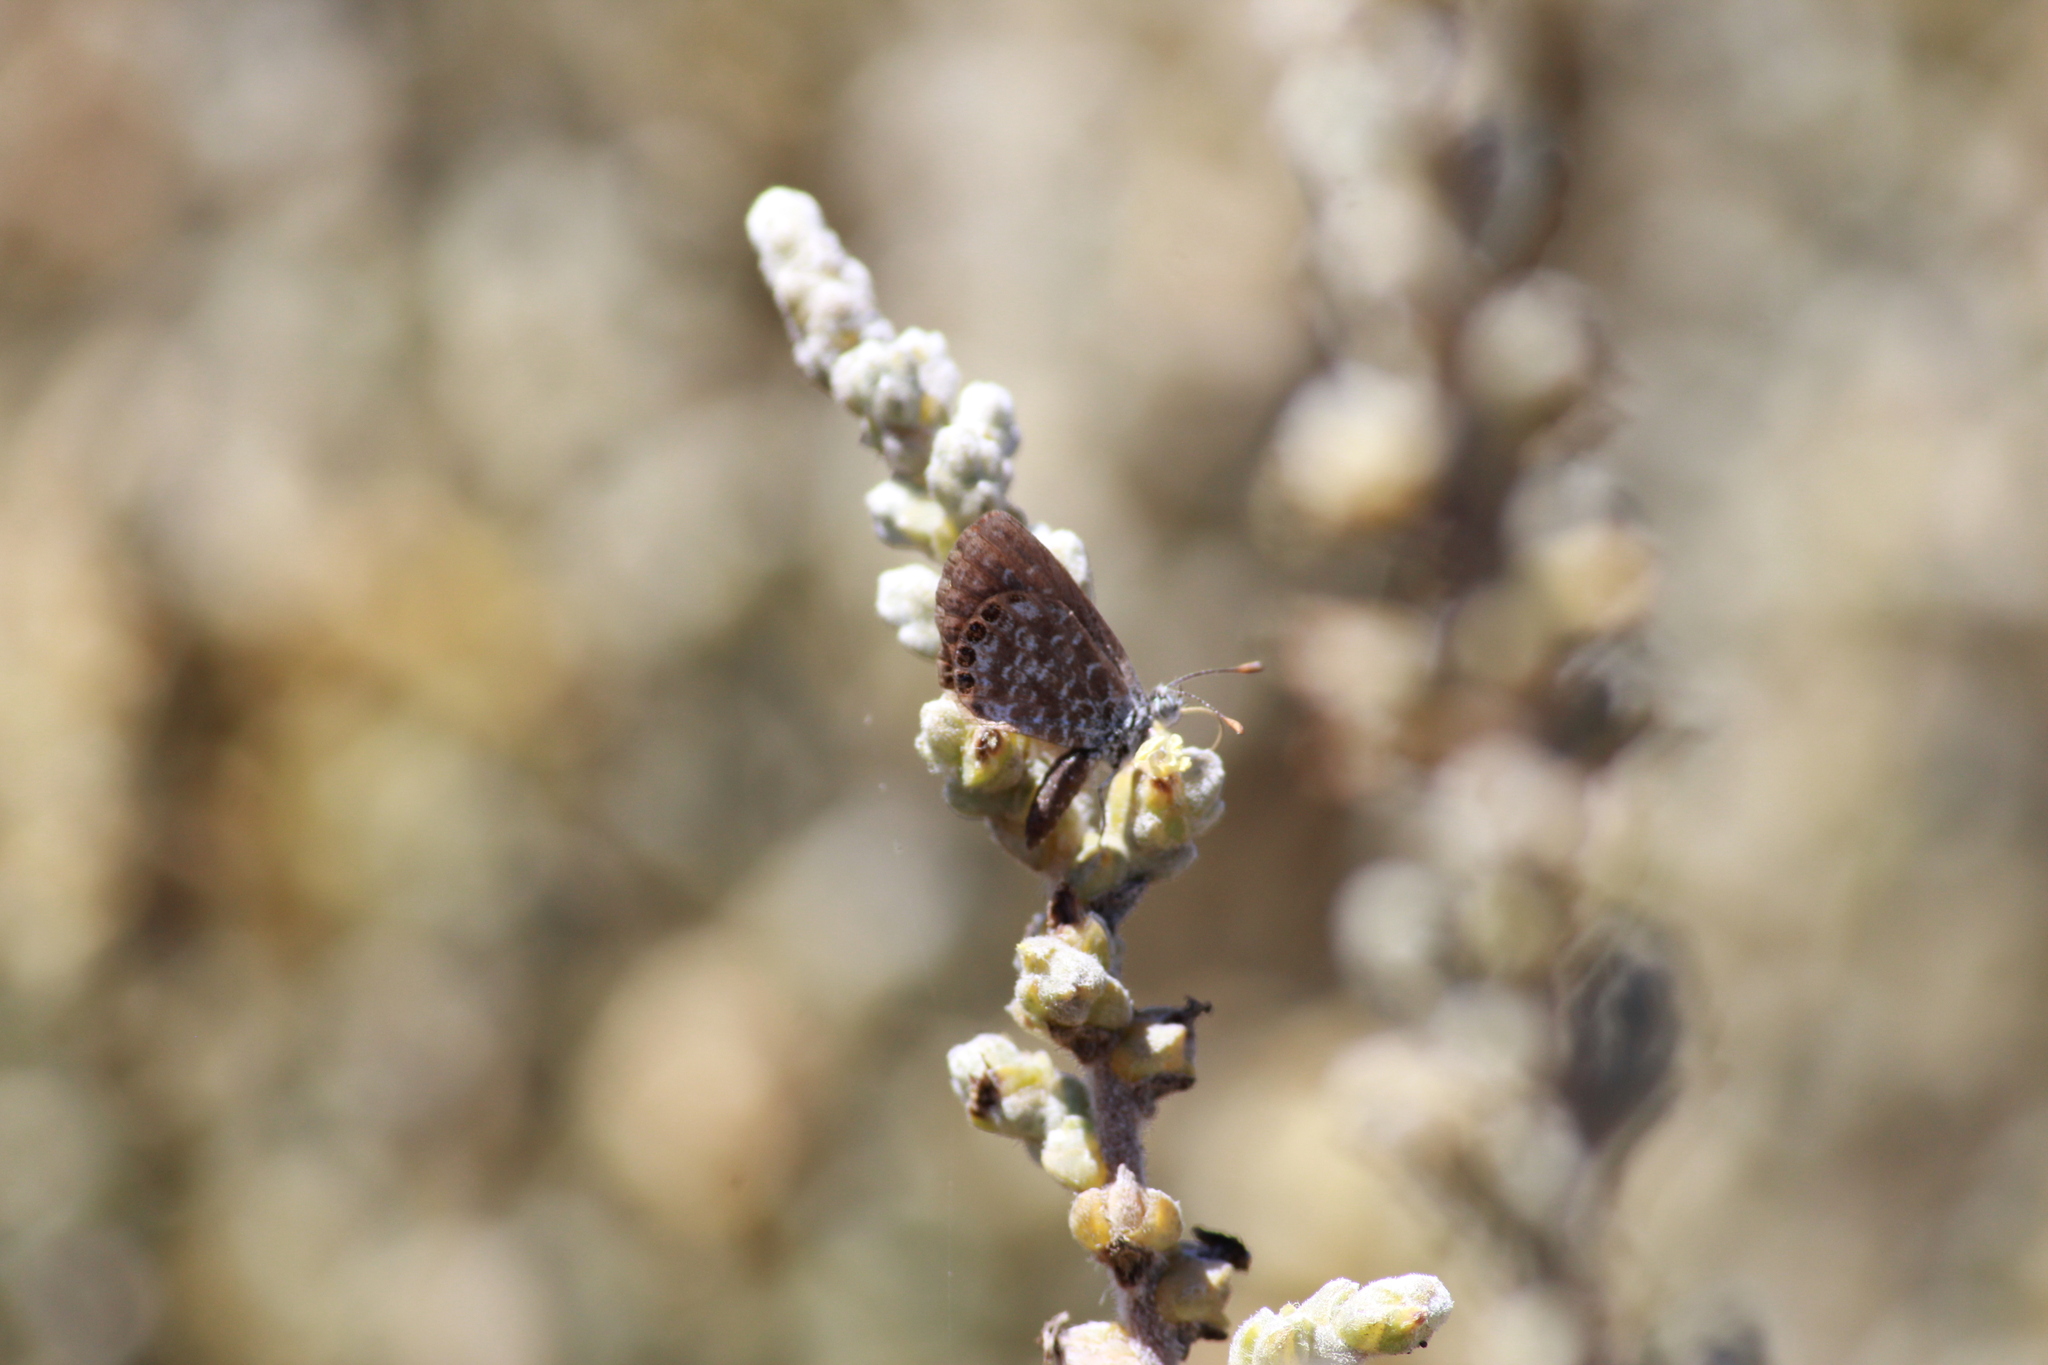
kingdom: Animalia
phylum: Arthropoda
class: Insecta
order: Lepidoptera
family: Lycaenidae
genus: Brephidium
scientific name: Brephidium metophis
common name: Tinktinkie blue
